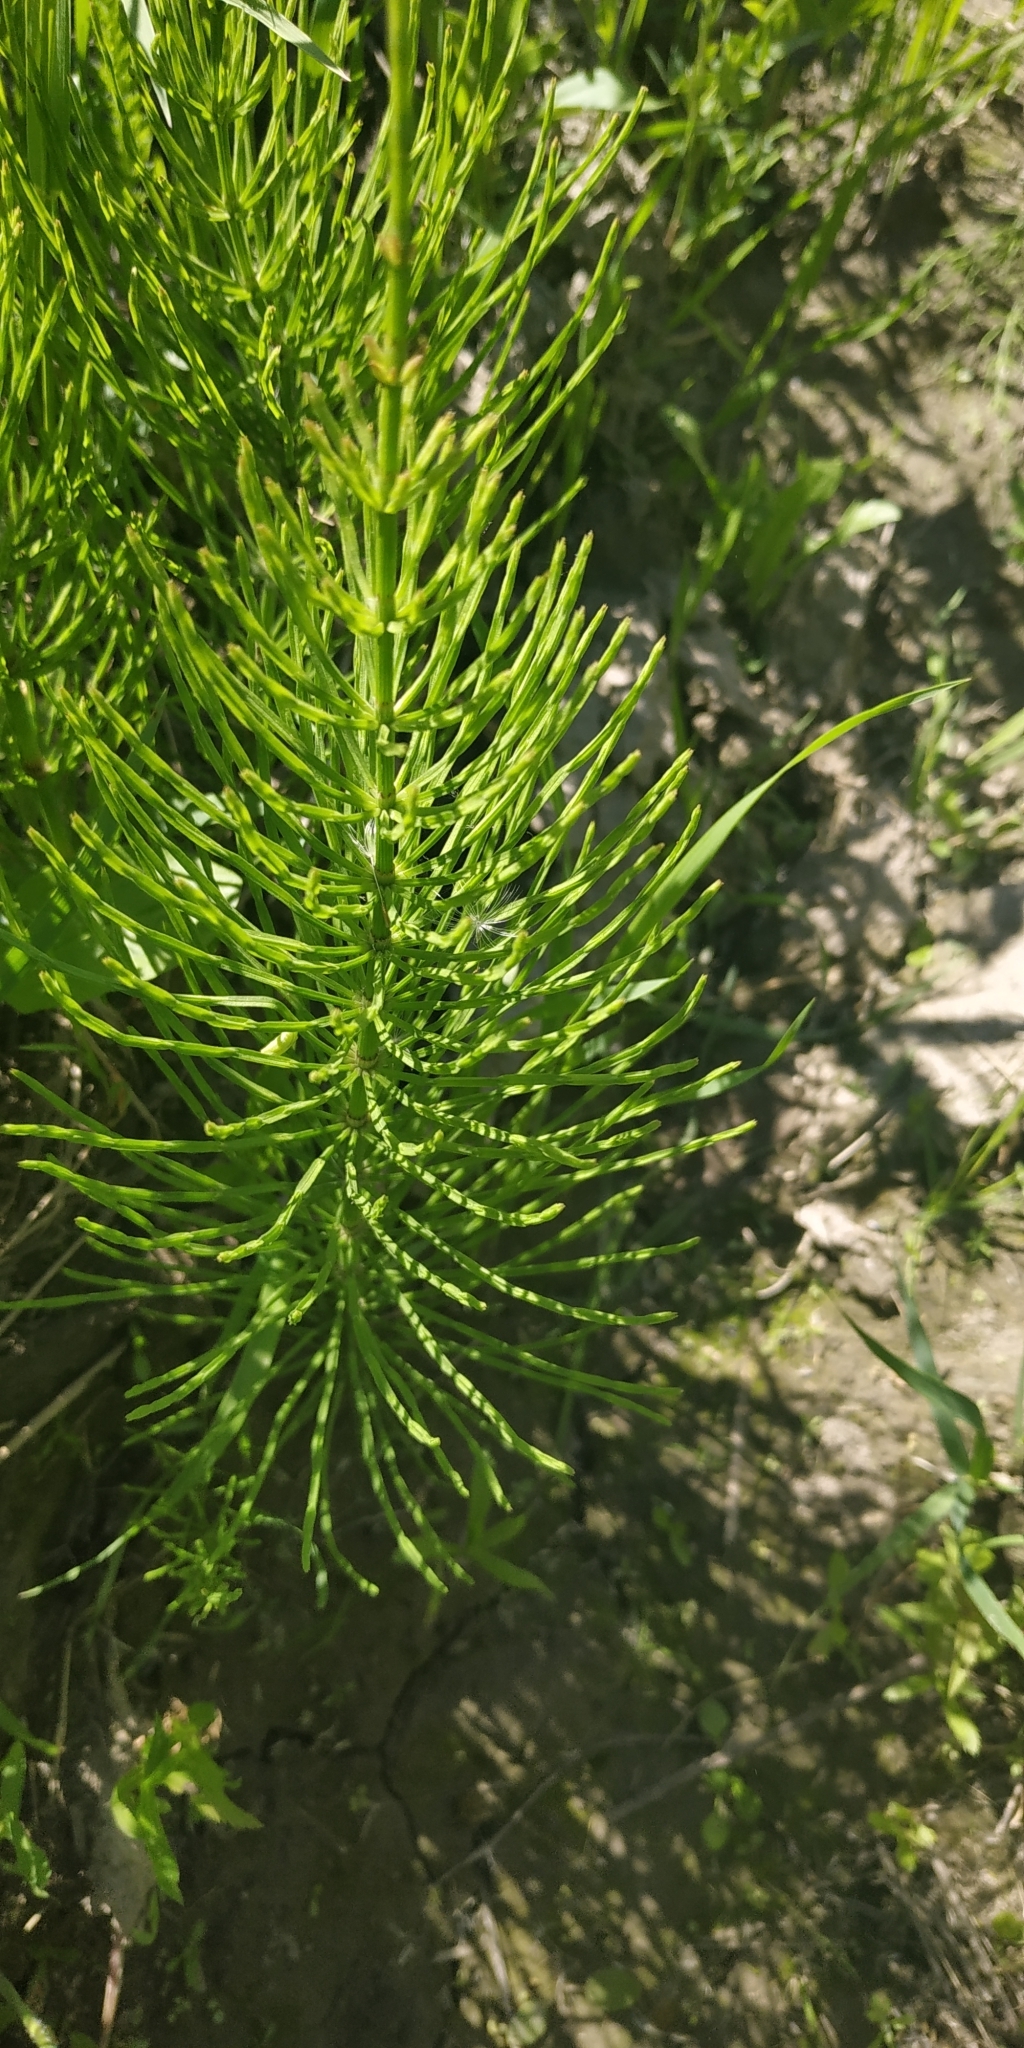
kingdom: Plantae
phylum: Tracheophyta
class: Polypodiopsida
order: Equisetales
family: Equisetaceae
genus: Equisetum
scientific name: Equisetum arvense
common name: Field horsetail
